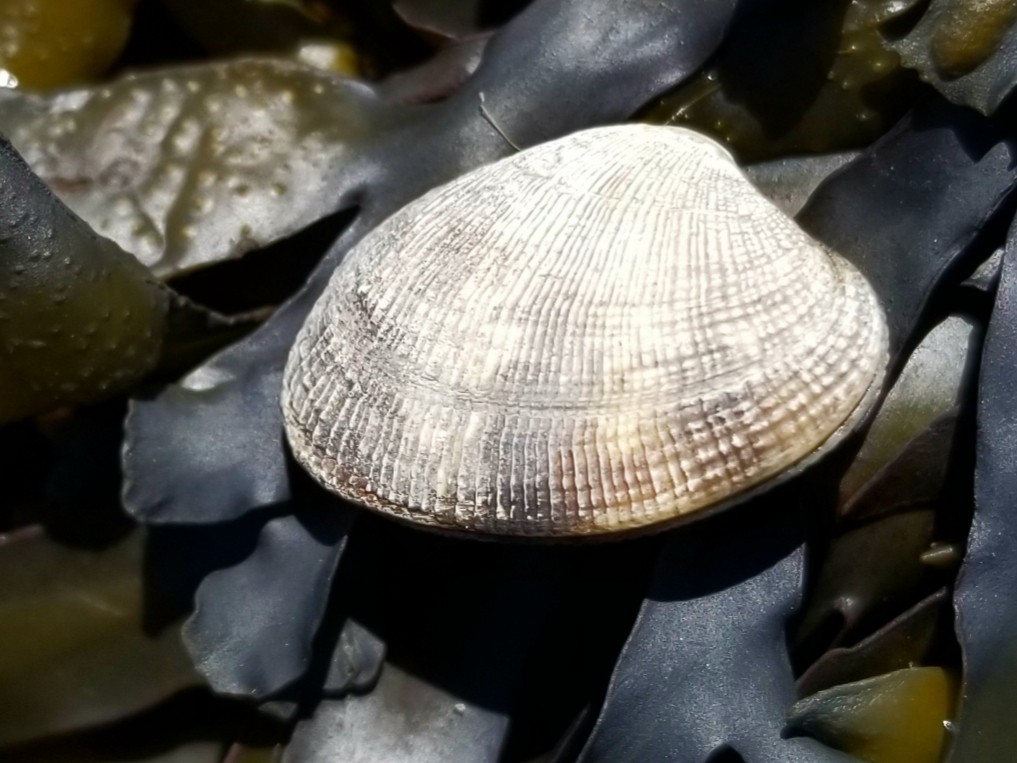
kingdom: Animalia
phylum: Mollusca
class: Bivalvia
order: Venerida
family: Veneridae
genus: Ruditapes
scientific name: Ruditapes philippinarum
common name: Manila clam
